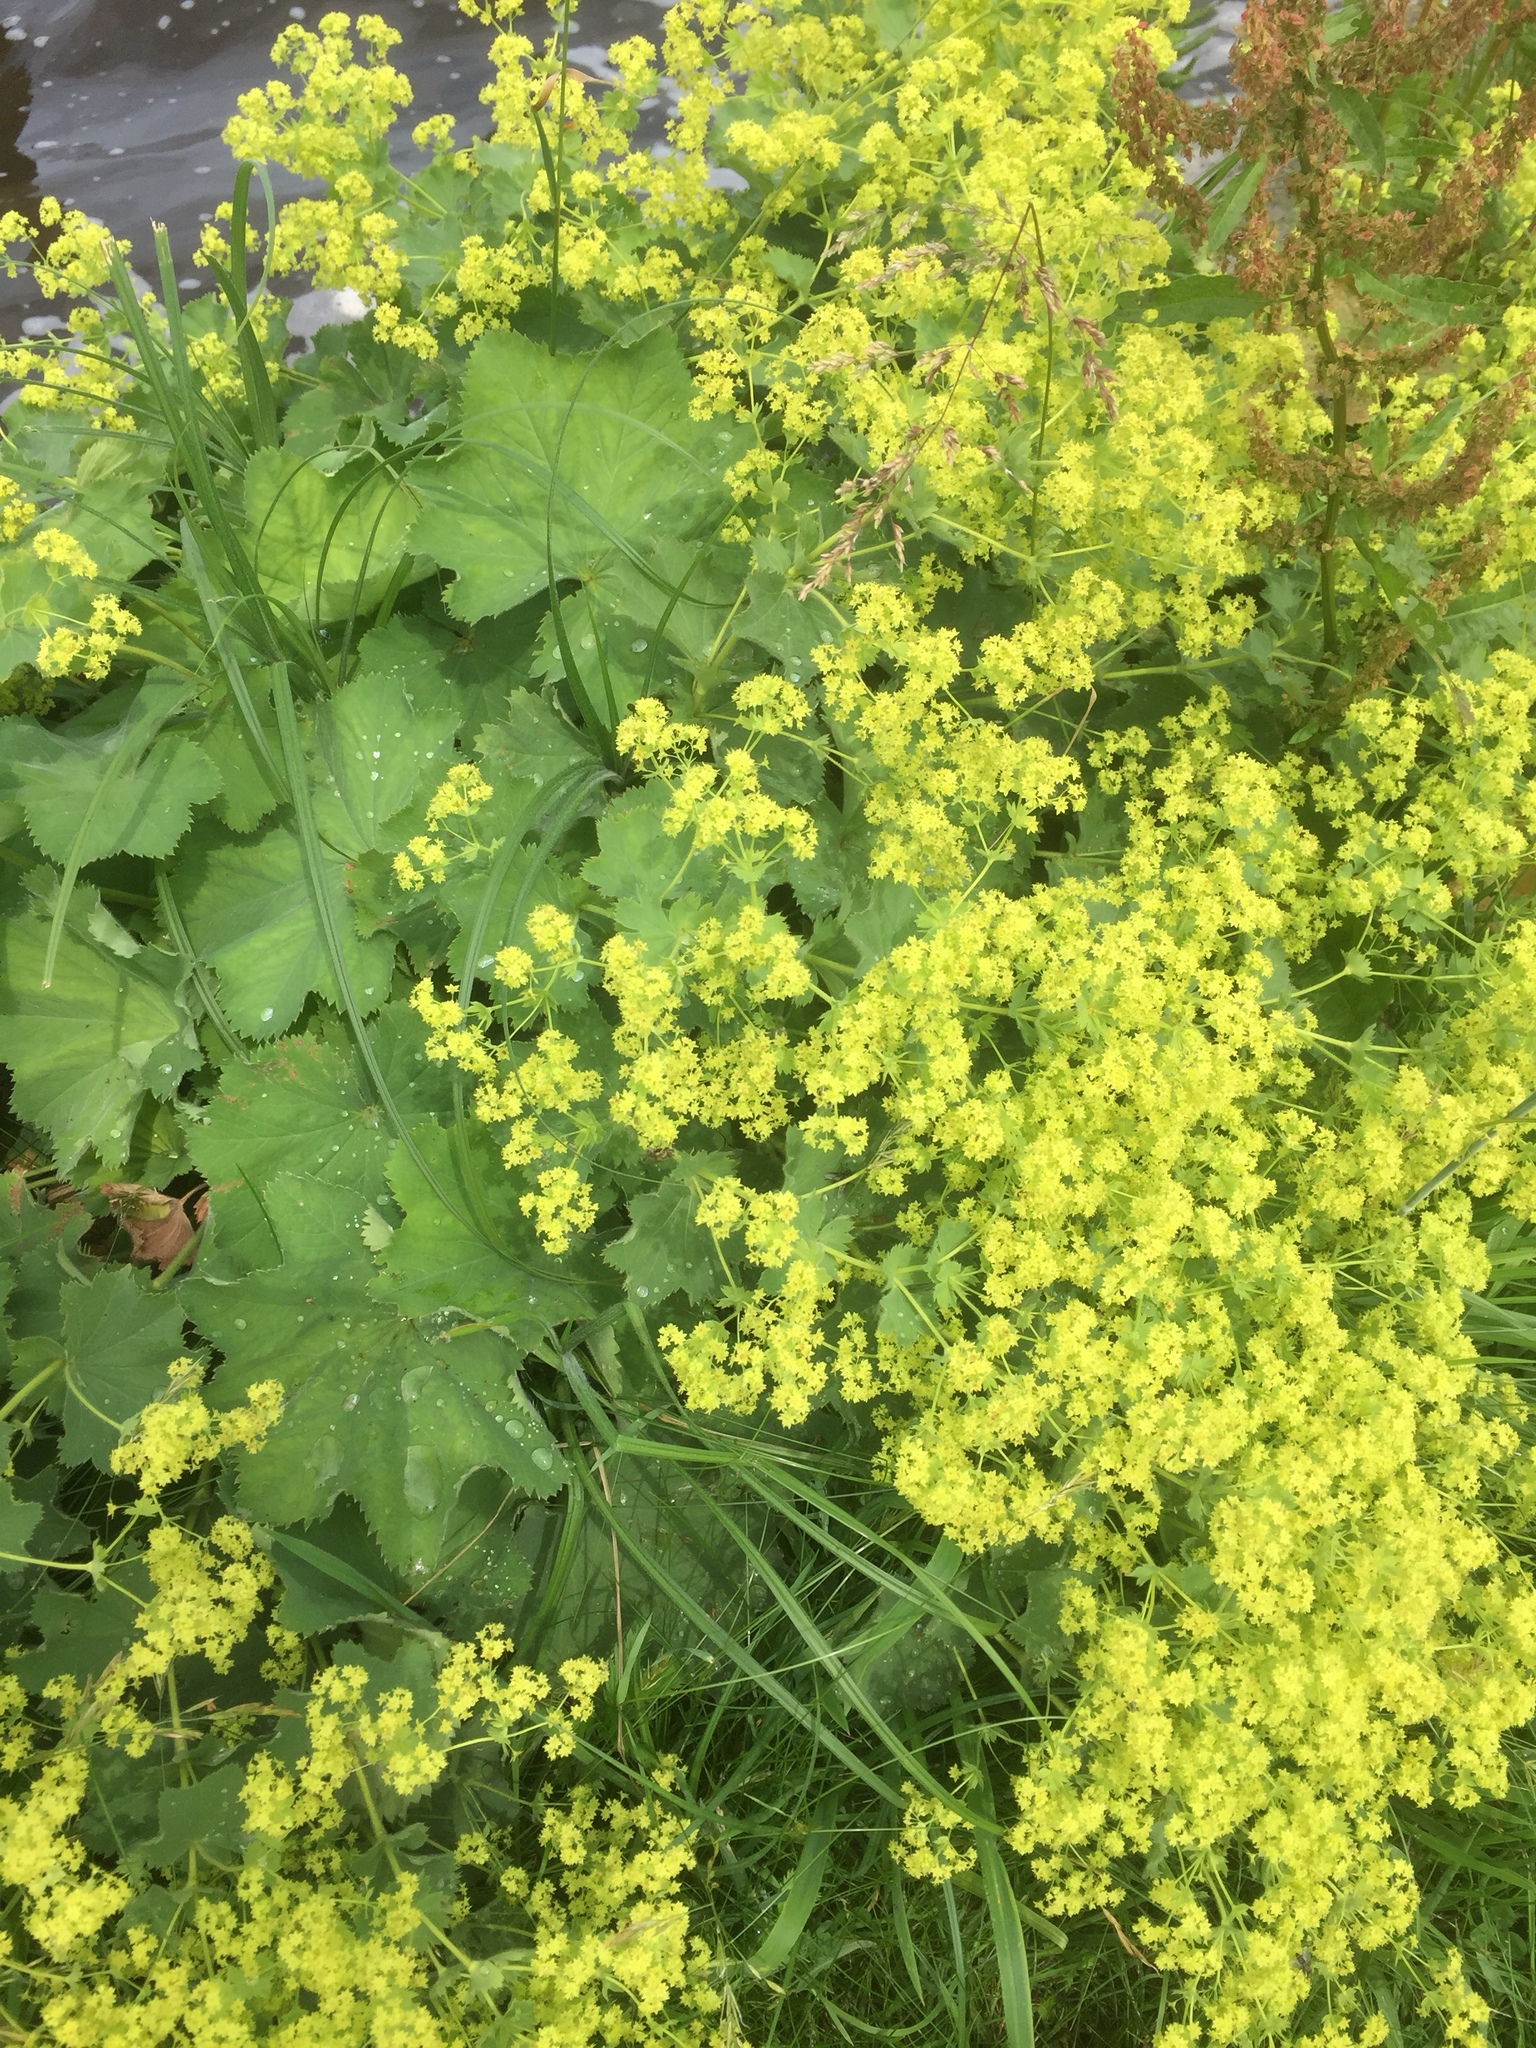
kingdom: Plantae
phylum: Tracheophyta
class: Magnoliopsida
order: Rosales
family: Rosaceae
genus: Alchemilla
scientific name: Alchemilla mollis
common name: Lady's-mantle
